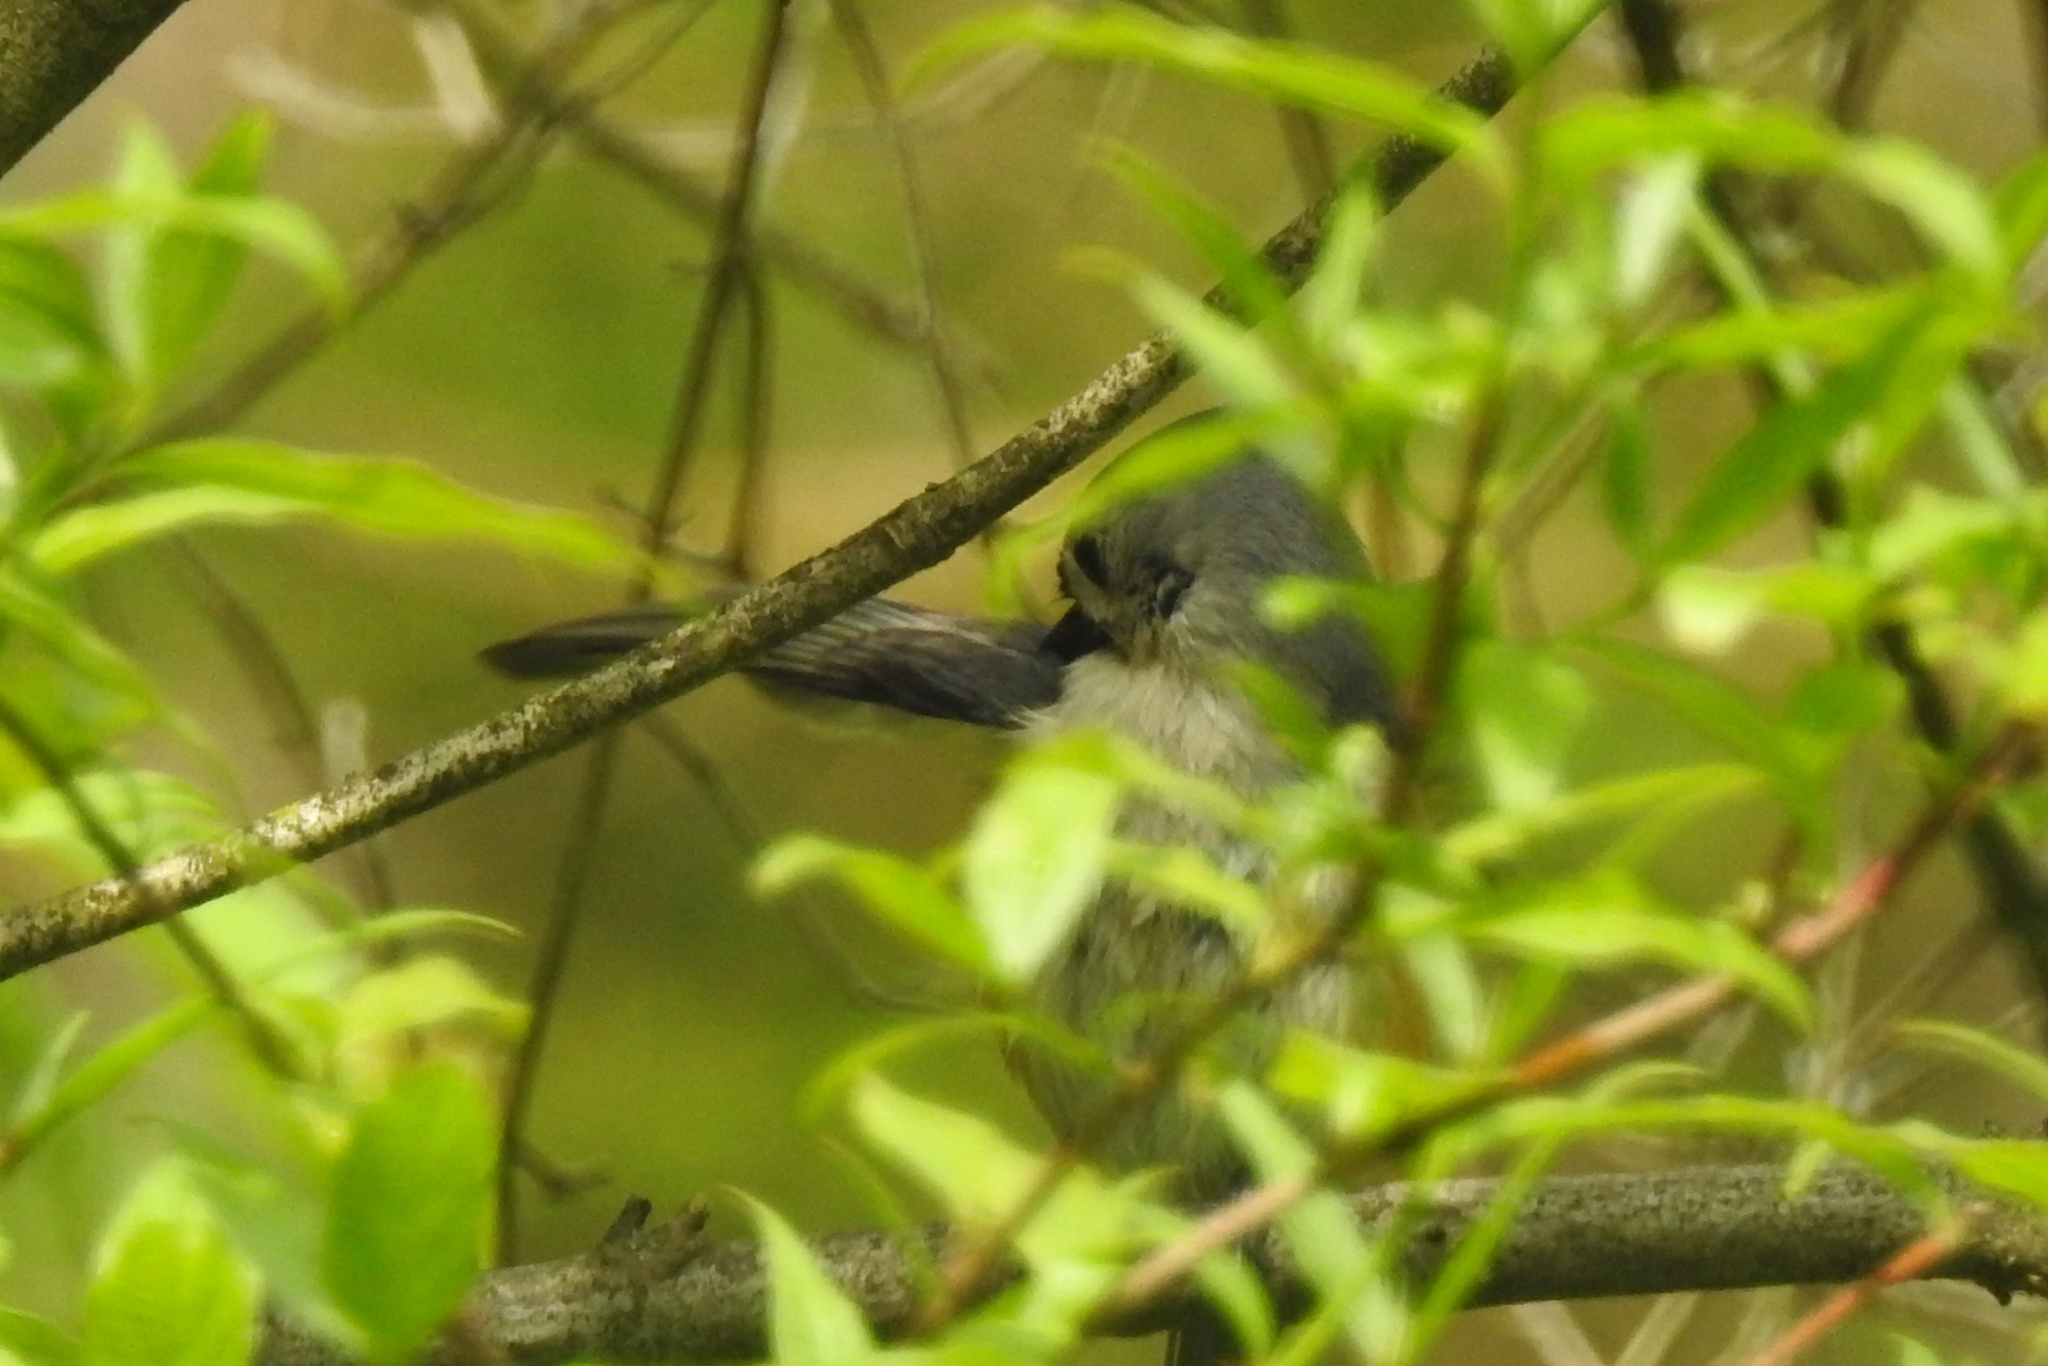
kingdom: Animalia
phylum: Chordata
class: Aves
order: Passeriformes
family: Paridae
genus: Baeolophus
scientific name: Baeolophus bicolor
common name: Tufted titmouse
